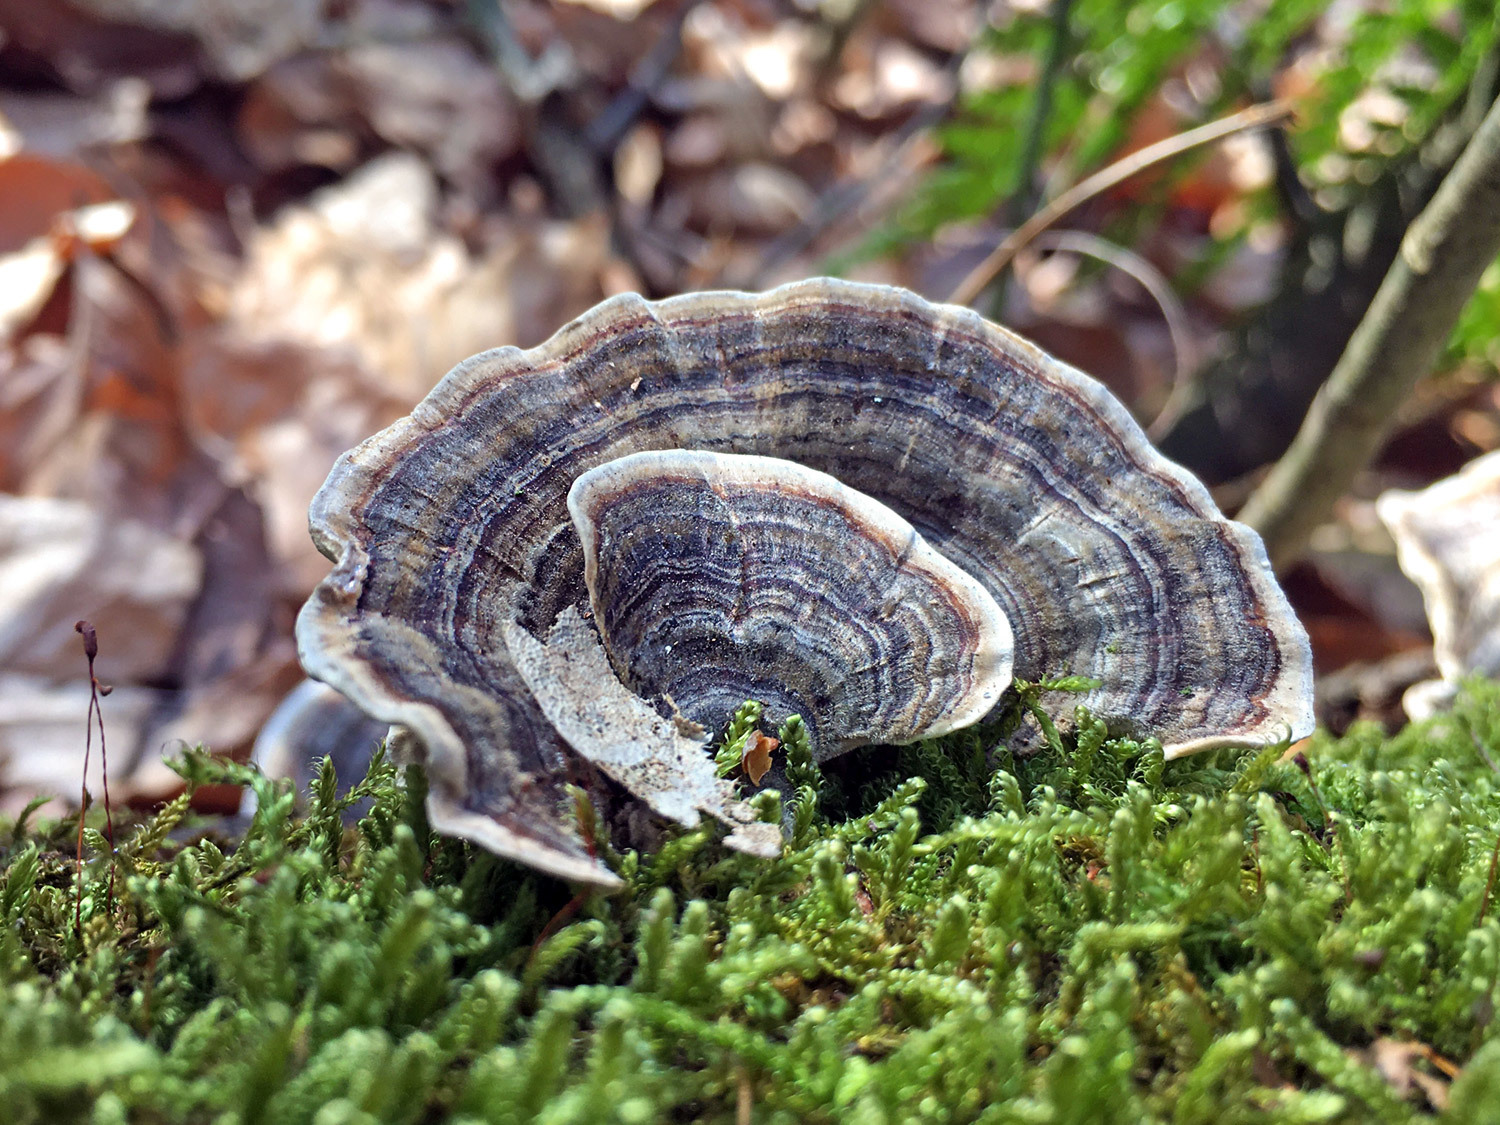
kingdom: Fungi
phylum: Basidiomycota
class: Agaricomycetes
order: Polyporales
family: Polyporaceae
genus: Trametes
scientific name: Trametes versicolor
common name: Turkeytail
